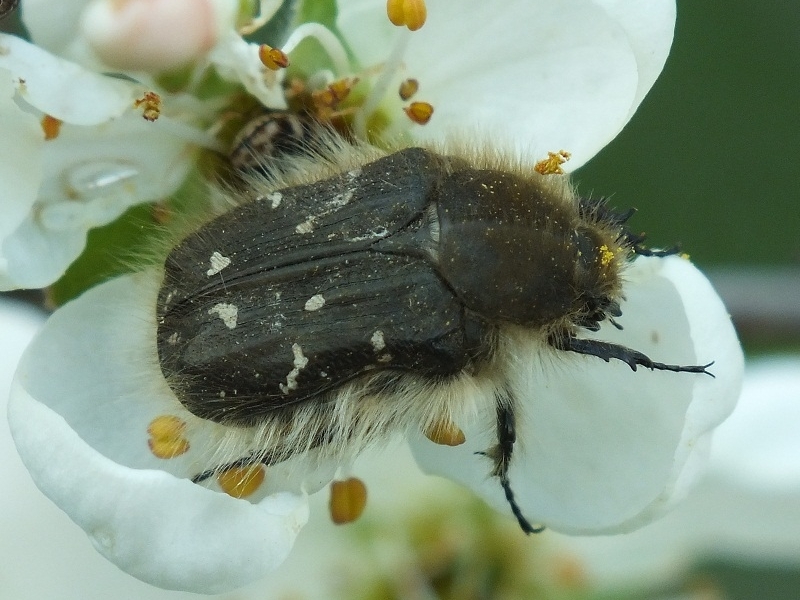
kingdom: Animalia
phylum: Arthropoda
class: Insecta
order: Coleoptera
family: Scarabaeidae
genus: Tropinota
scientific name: Tropinota hirta
